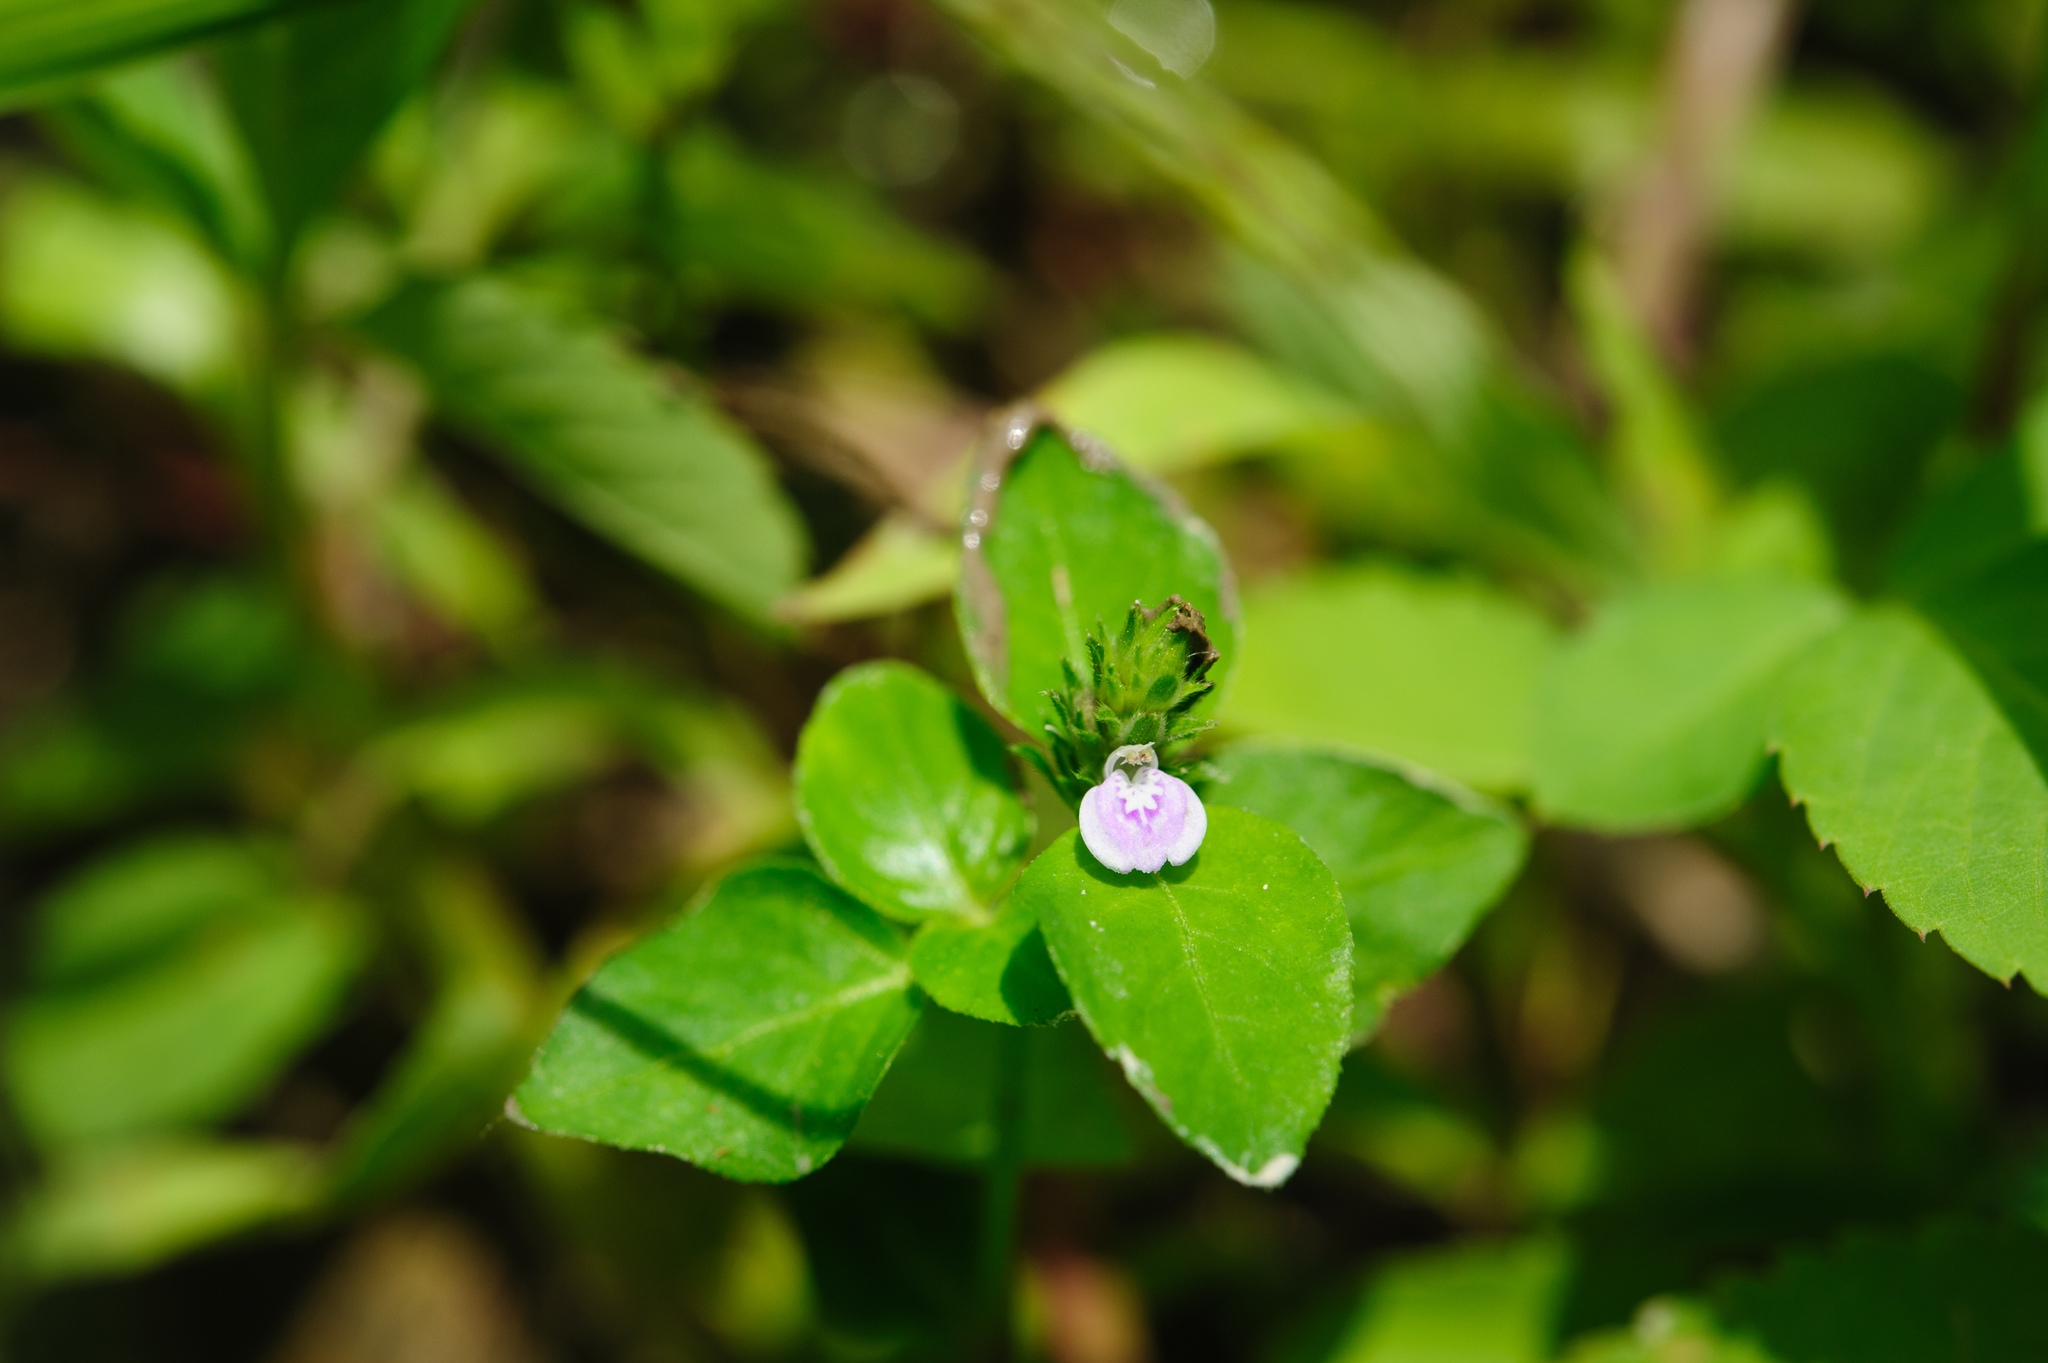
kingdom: Plantae
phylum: Tracheophyta
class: Magnoliopsida
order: Lamiales
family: Acanthaceae
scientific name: Acanthaceae
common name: Acanthaceae
